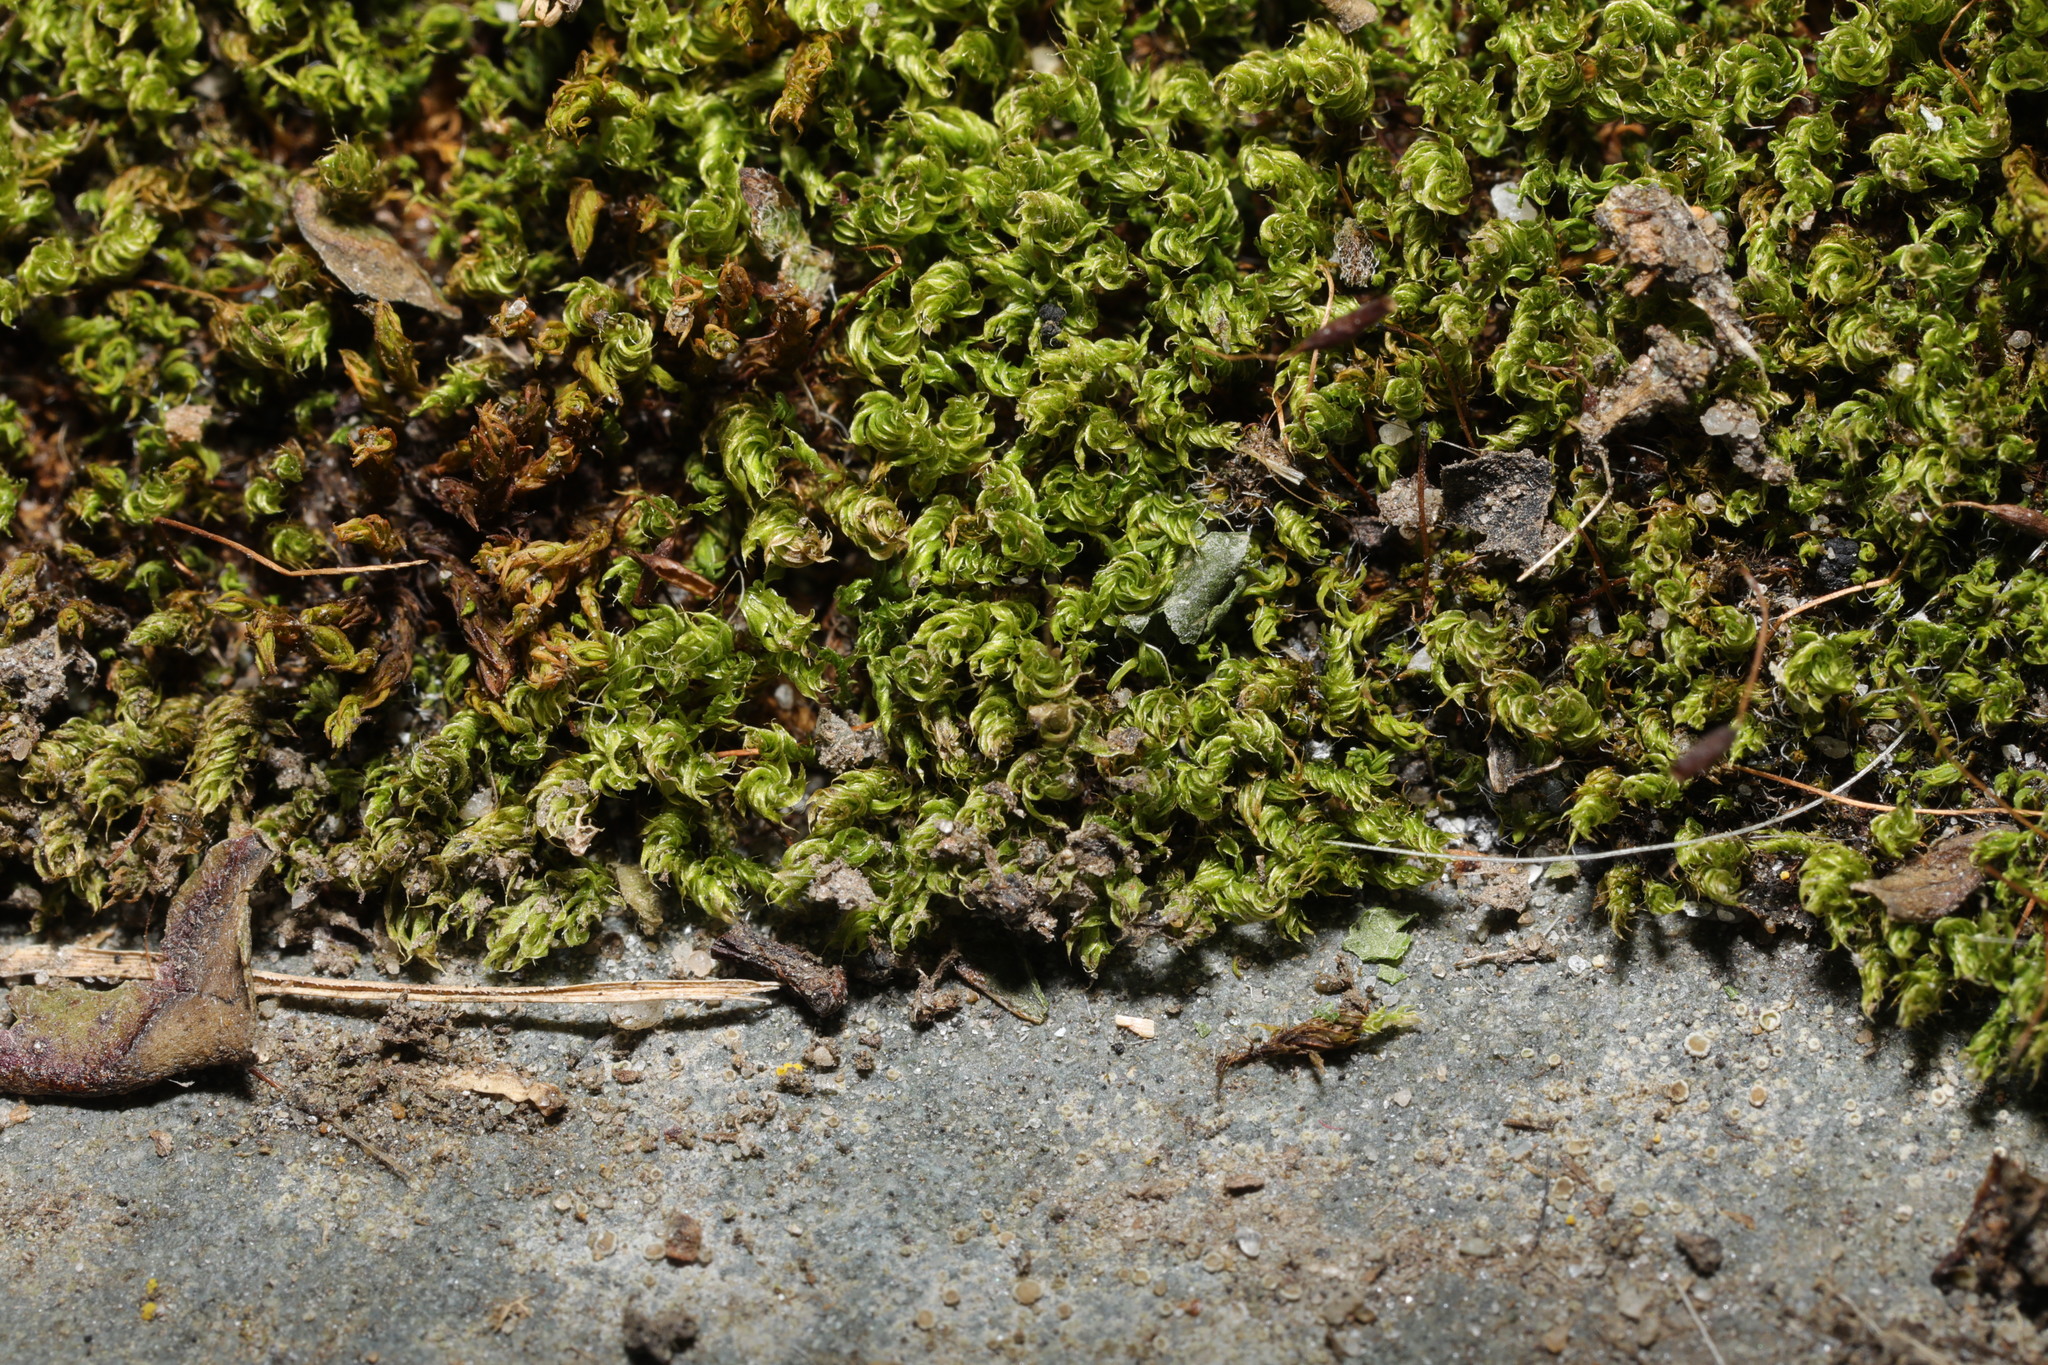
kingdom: Plantae
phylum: Bryophyta
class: Bryopsida
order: Bryales
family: Bryaceae
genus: Rosulabryum
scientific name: Rosulabryum capillare
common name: Capillary thread-moss
